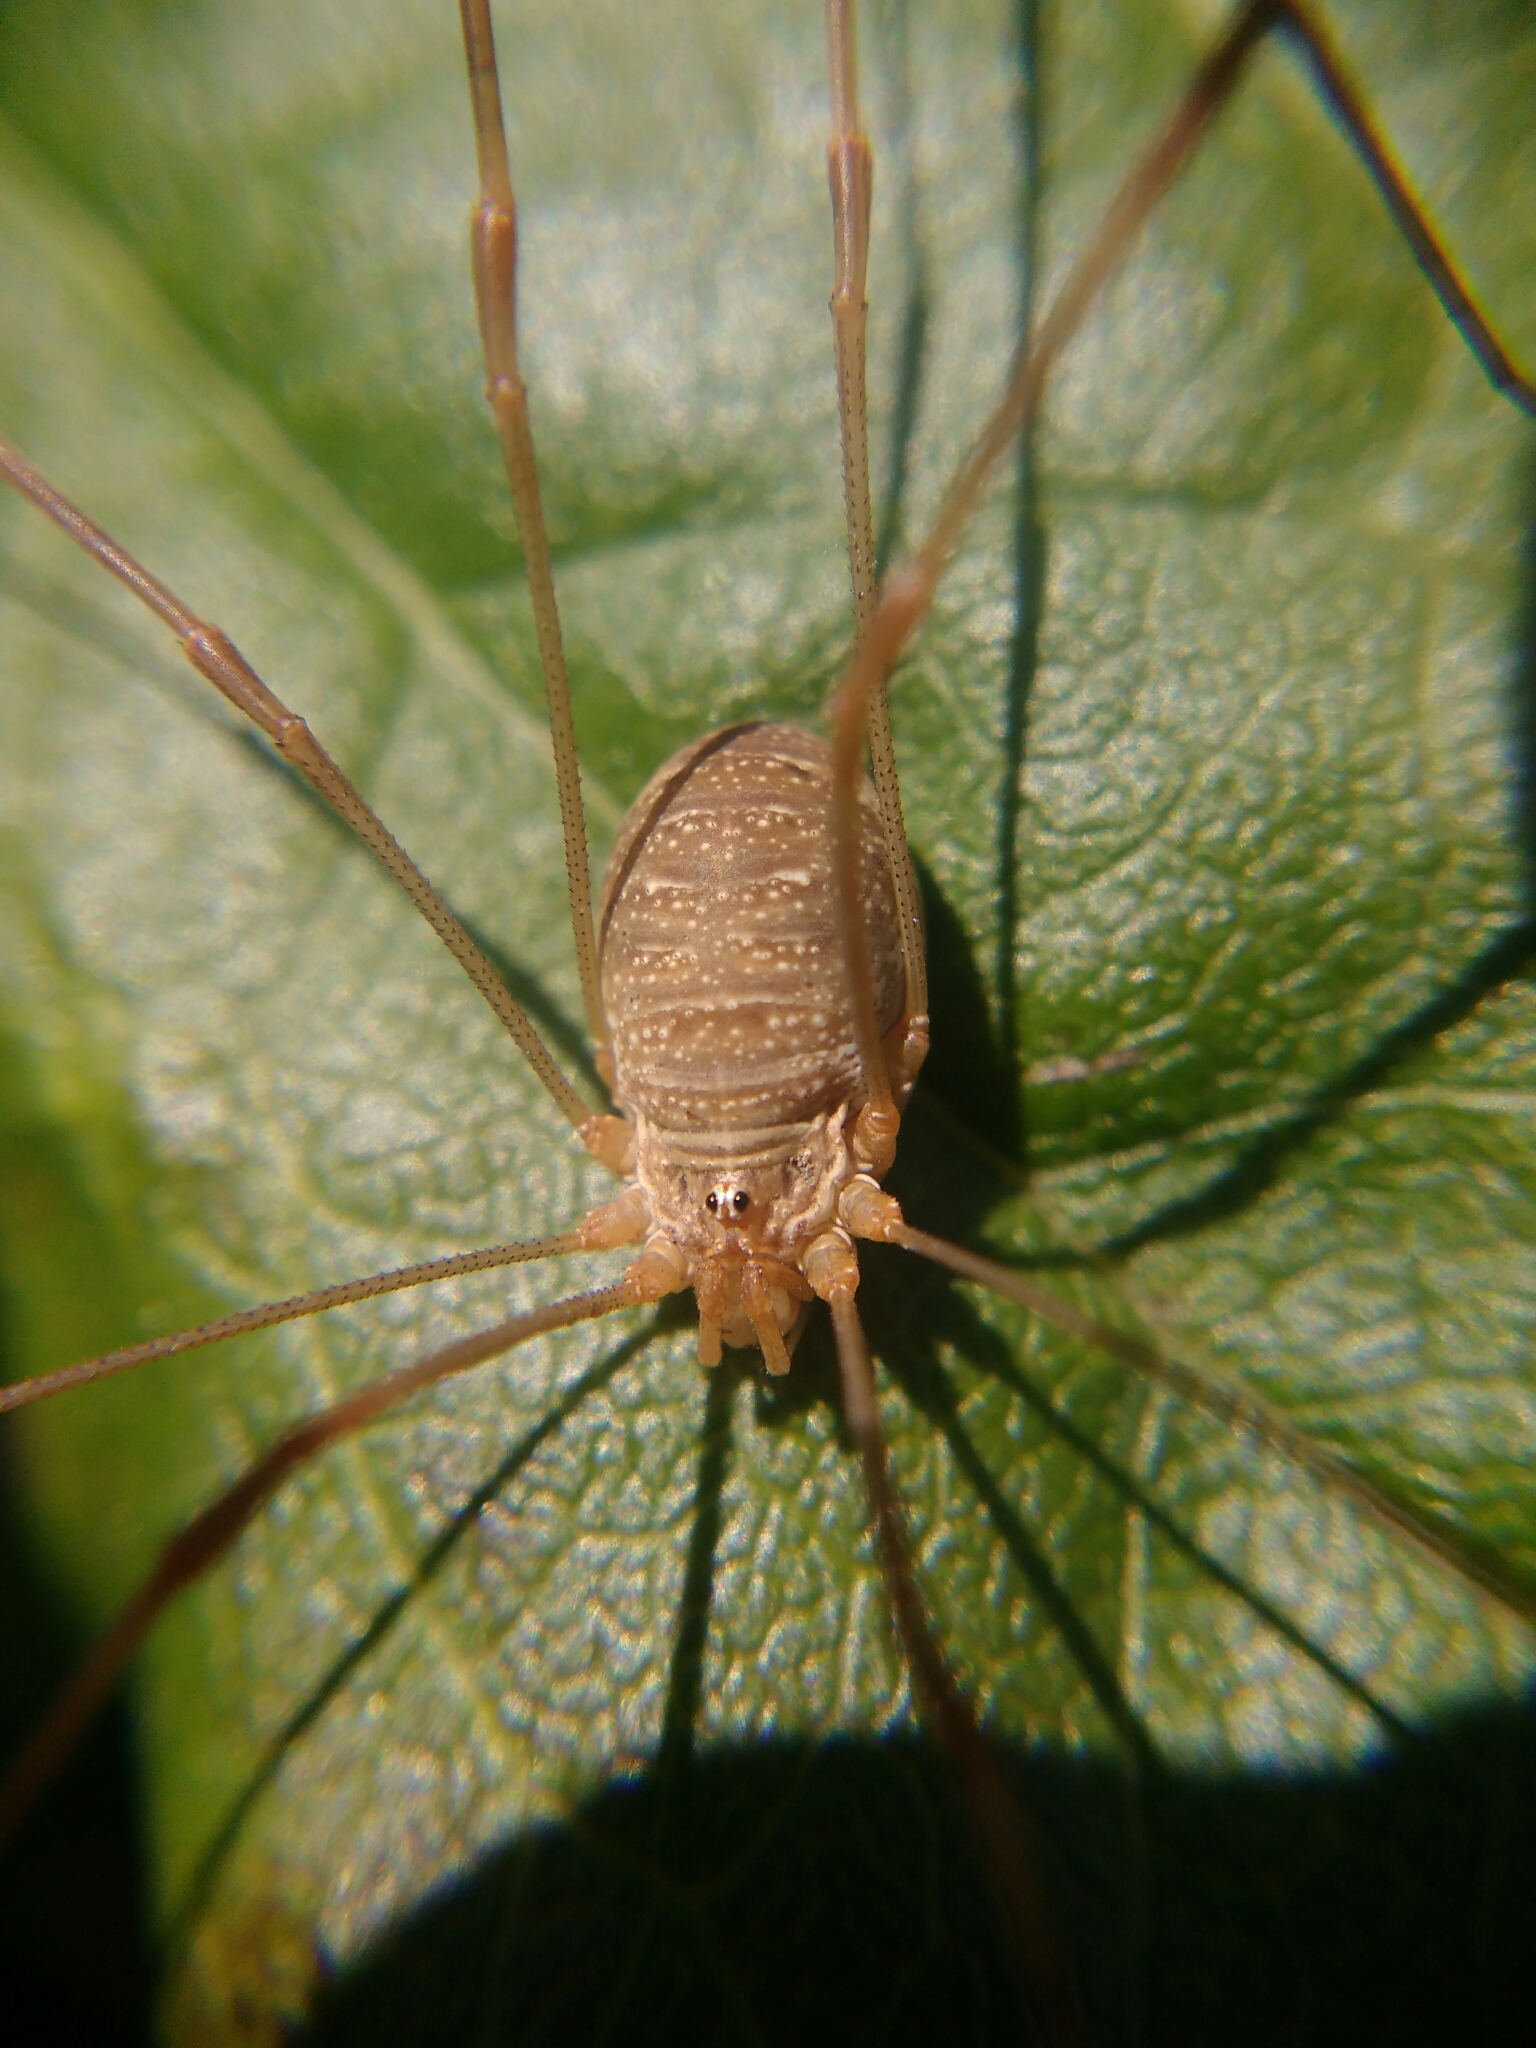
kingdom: Animalia
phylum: Arthropoda
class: Arachnida
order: Opiliones
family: Phalangiidae
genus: Opilio
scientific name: Opilio canestrinii
